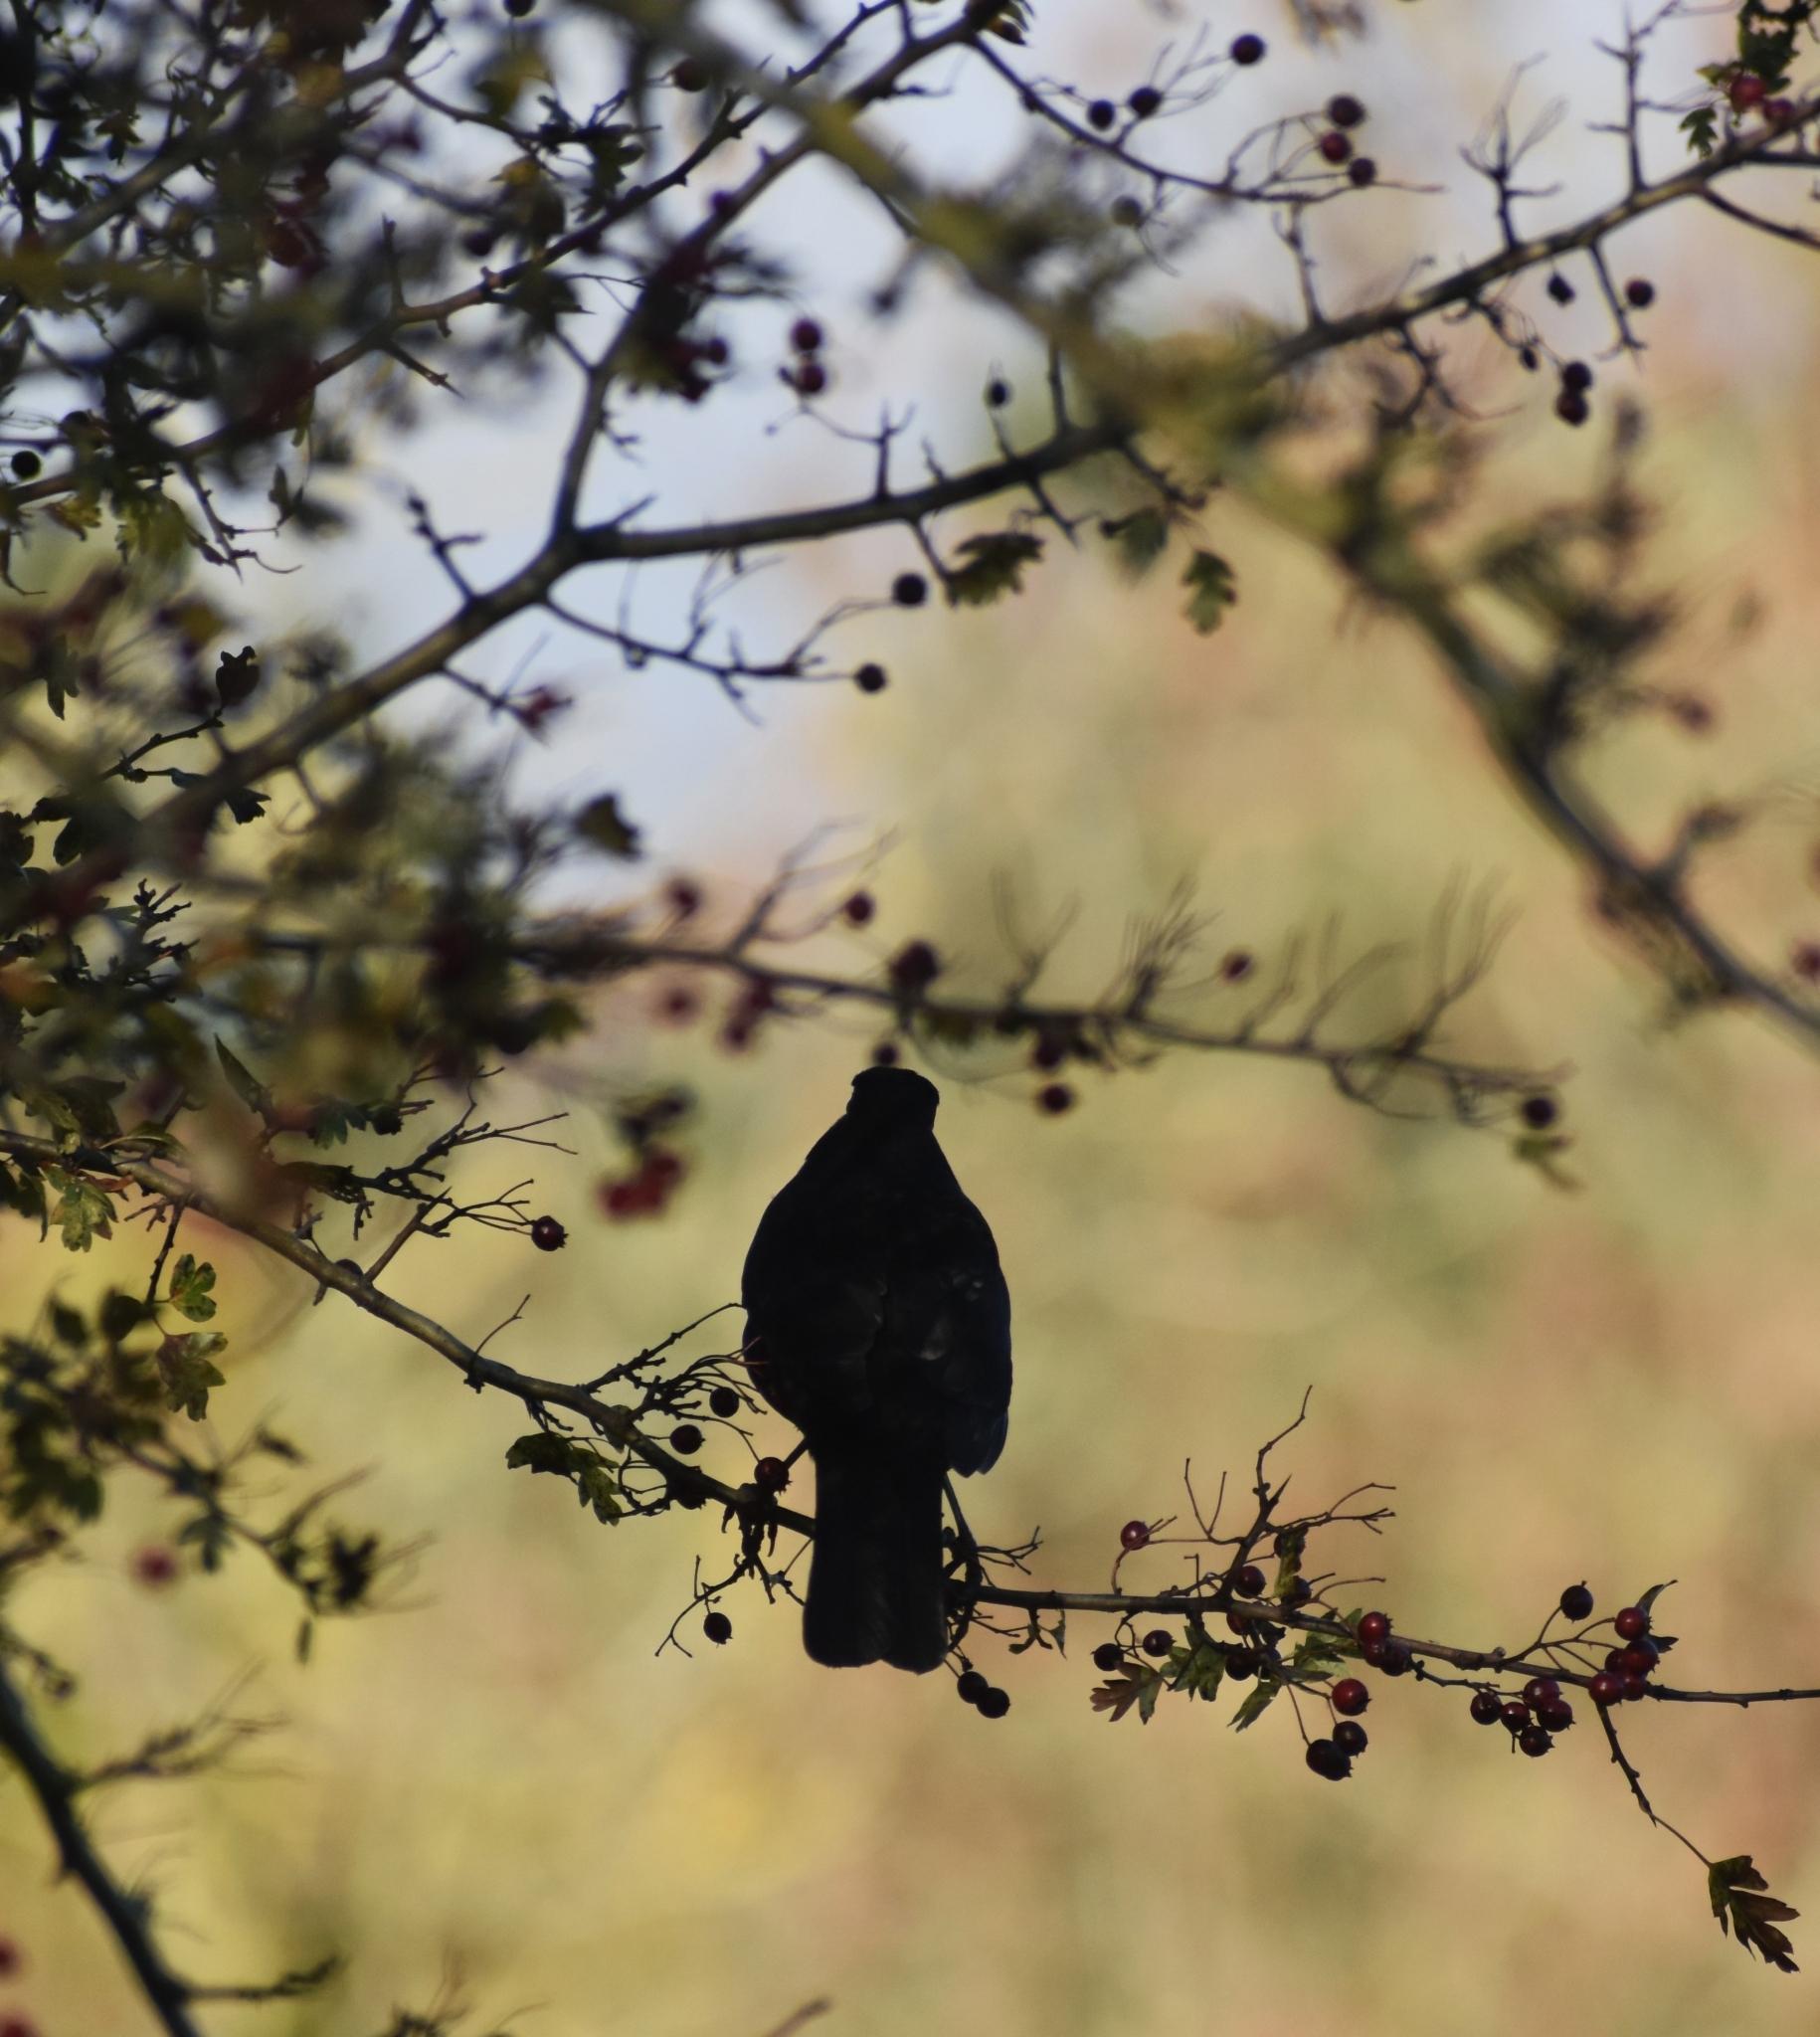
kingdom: Animalia
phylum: Chordata
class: Aves
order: Passeriformes
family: Turdidae
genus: Turdus
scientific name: Turdus merula
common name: Common blackbird
